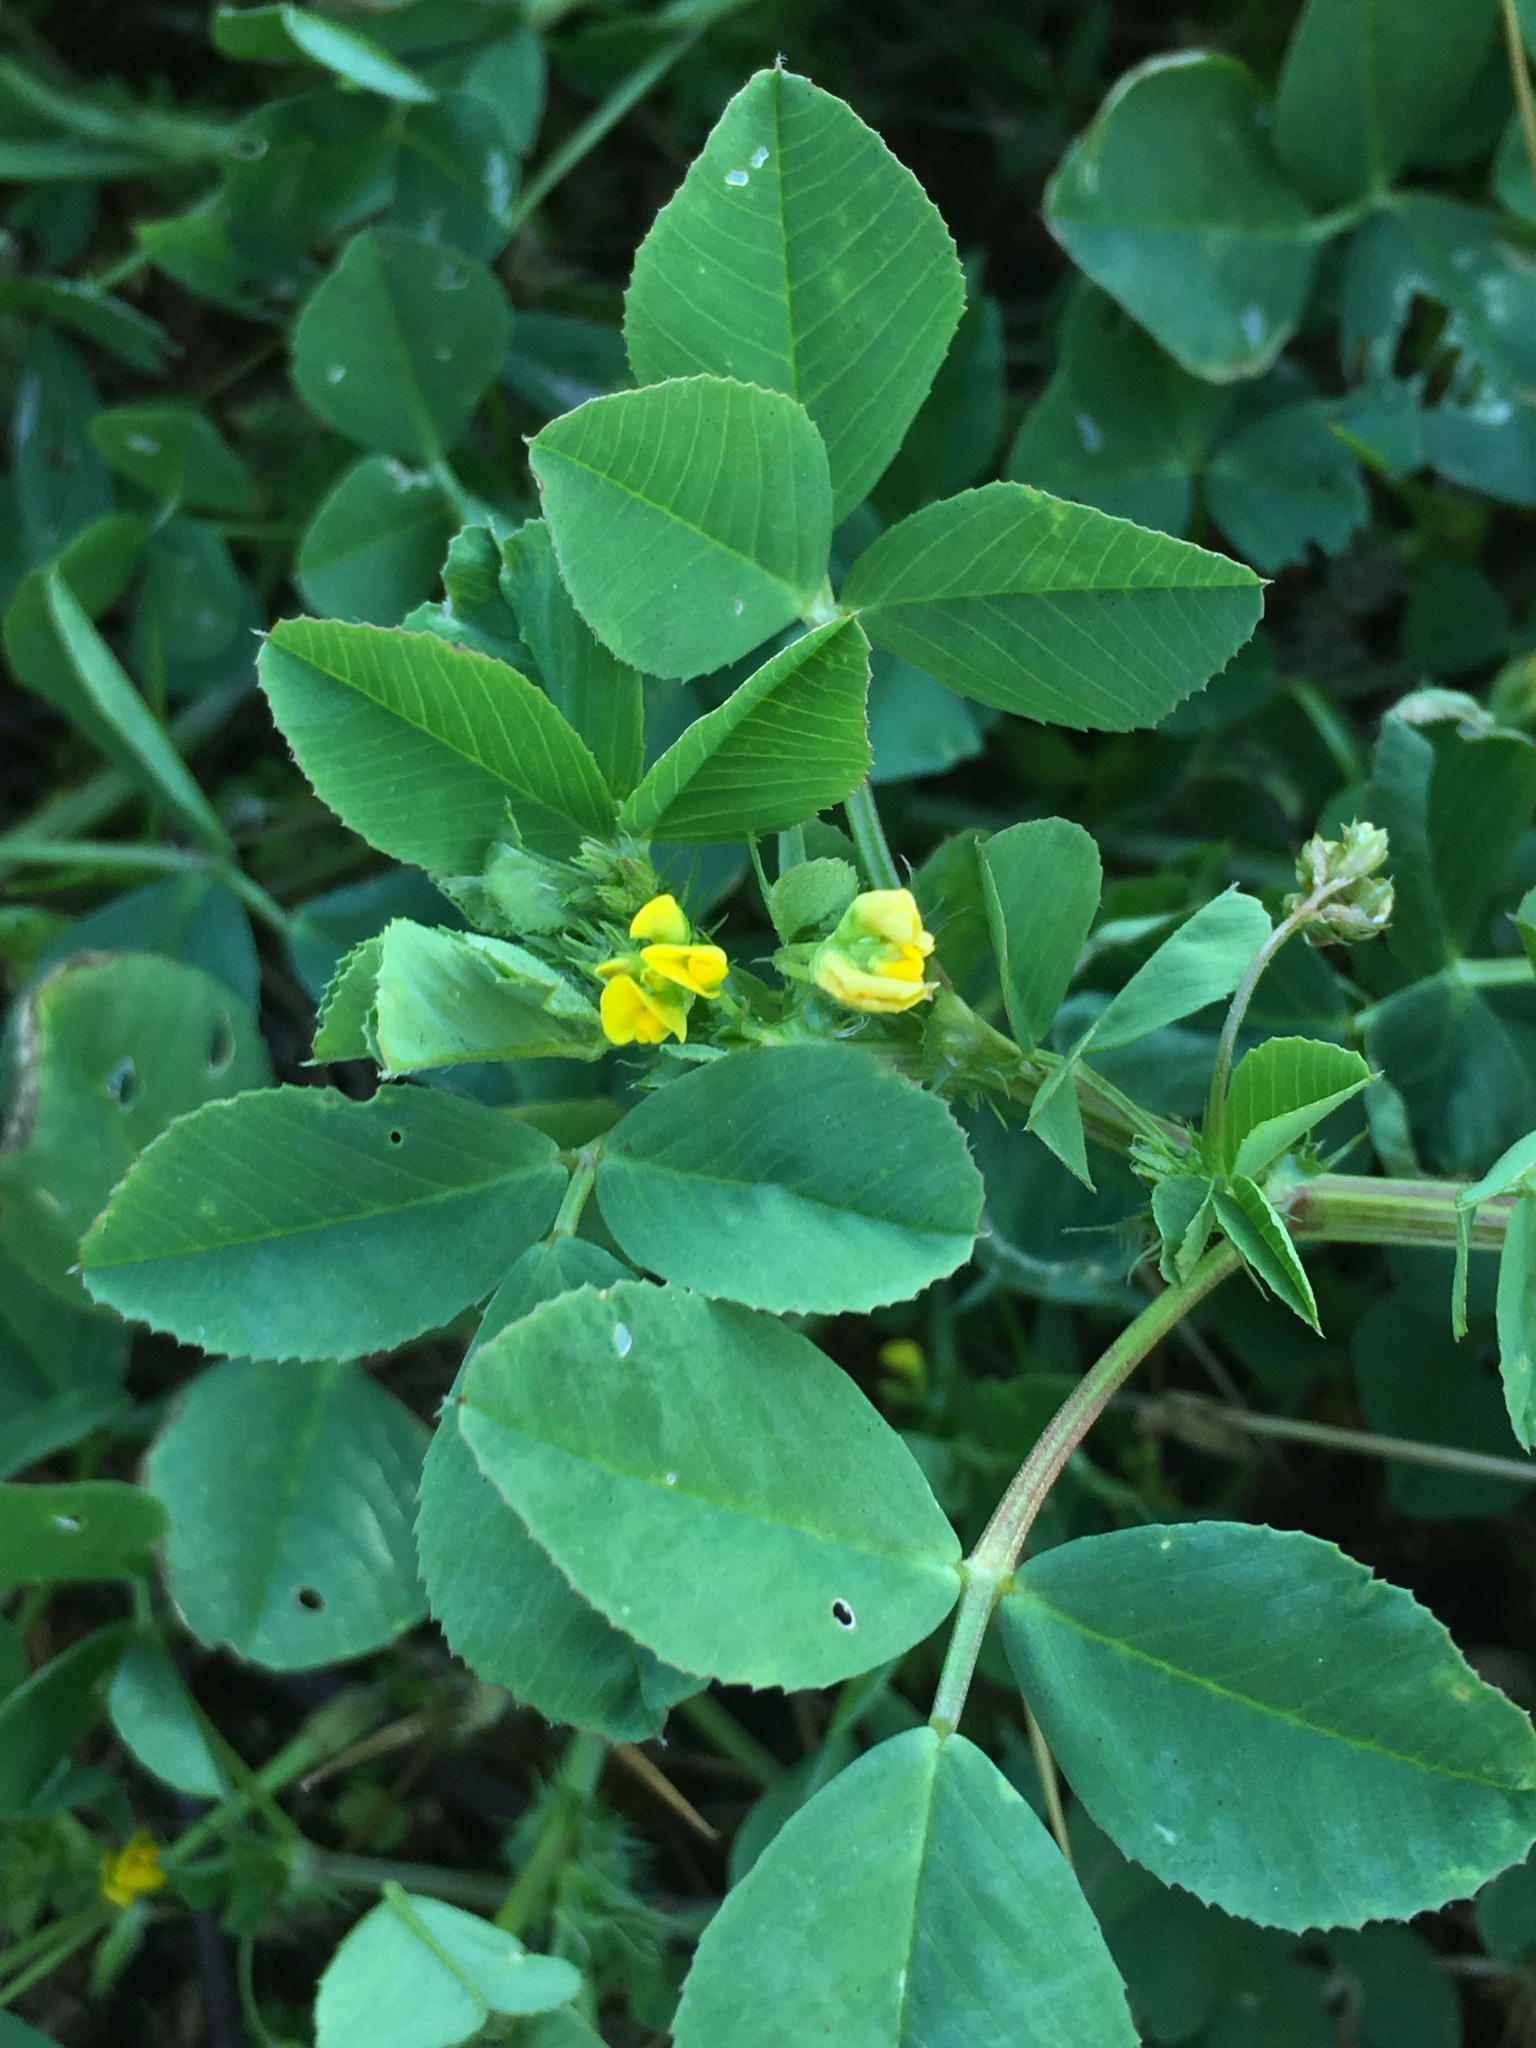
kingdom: Plantae
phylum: Tracheophyta
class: Magnoliopsida
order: Fabales
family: Fabaceae
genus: Medicago
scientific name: Medicago polymorpha
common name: Burclover
